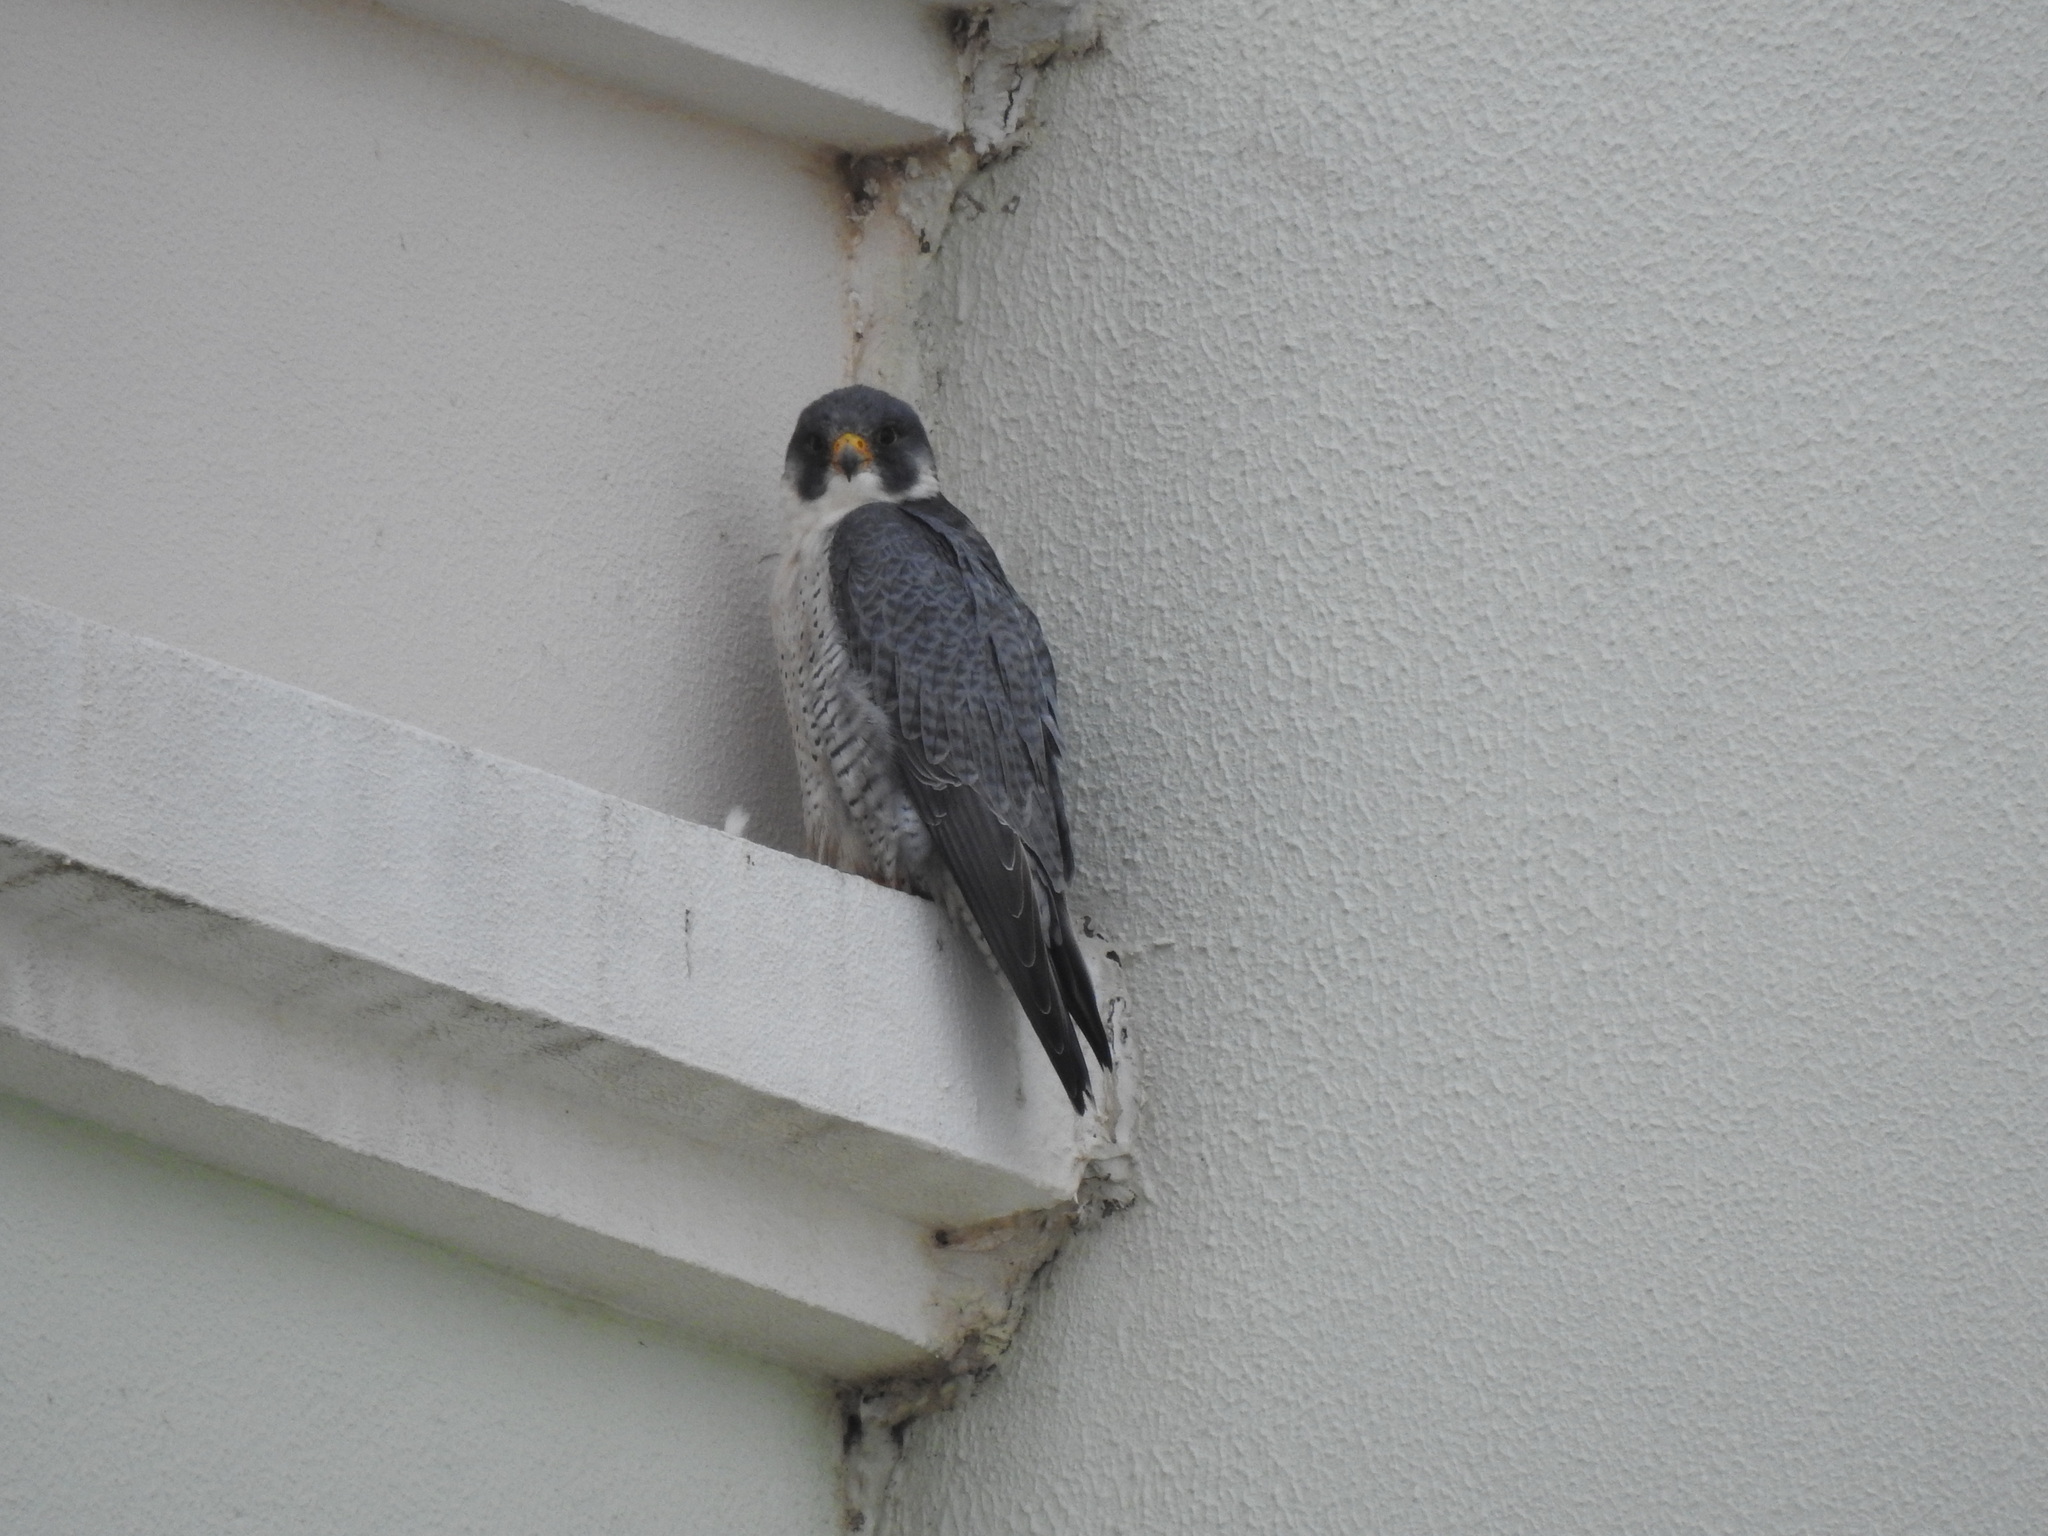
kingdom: Animalia
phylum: Chordata
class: Aves
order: Falconiformes
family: Falconidae
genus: Falco
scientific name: Falco peregrinus
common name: Peregrine falcon
